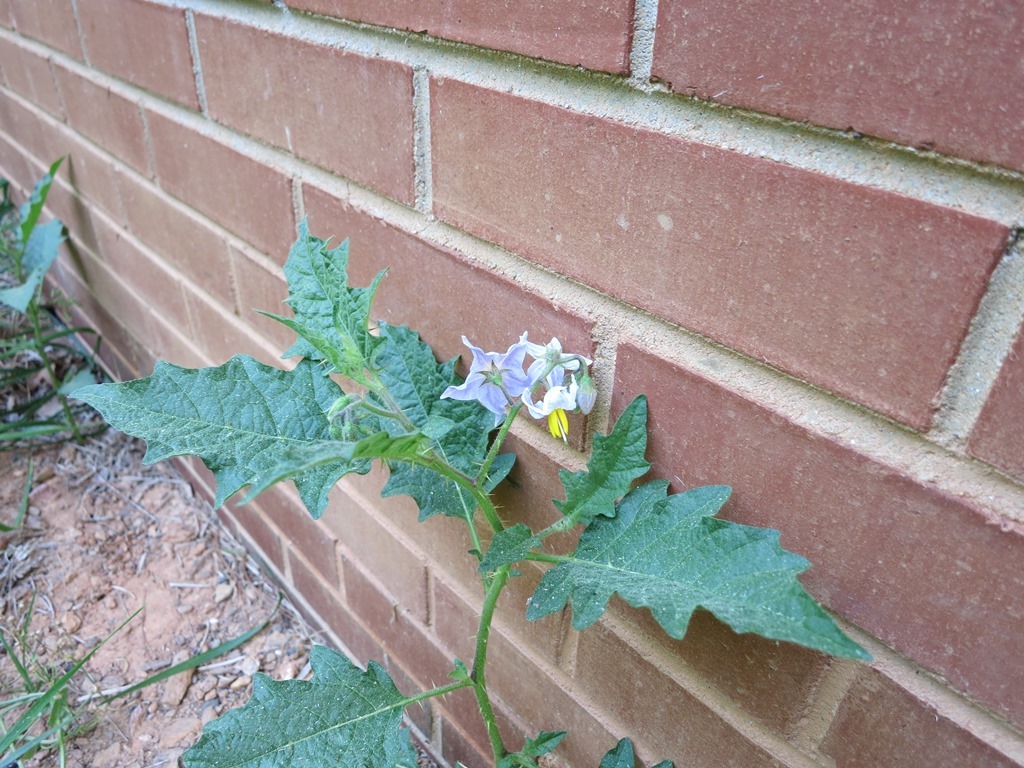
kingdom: Plantae
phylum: Tracheophyta
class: Magnoliopsida
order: Solanales
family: Solanaceae
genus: Solanum
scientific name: Solanum carolinense
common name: Horse-nettle
